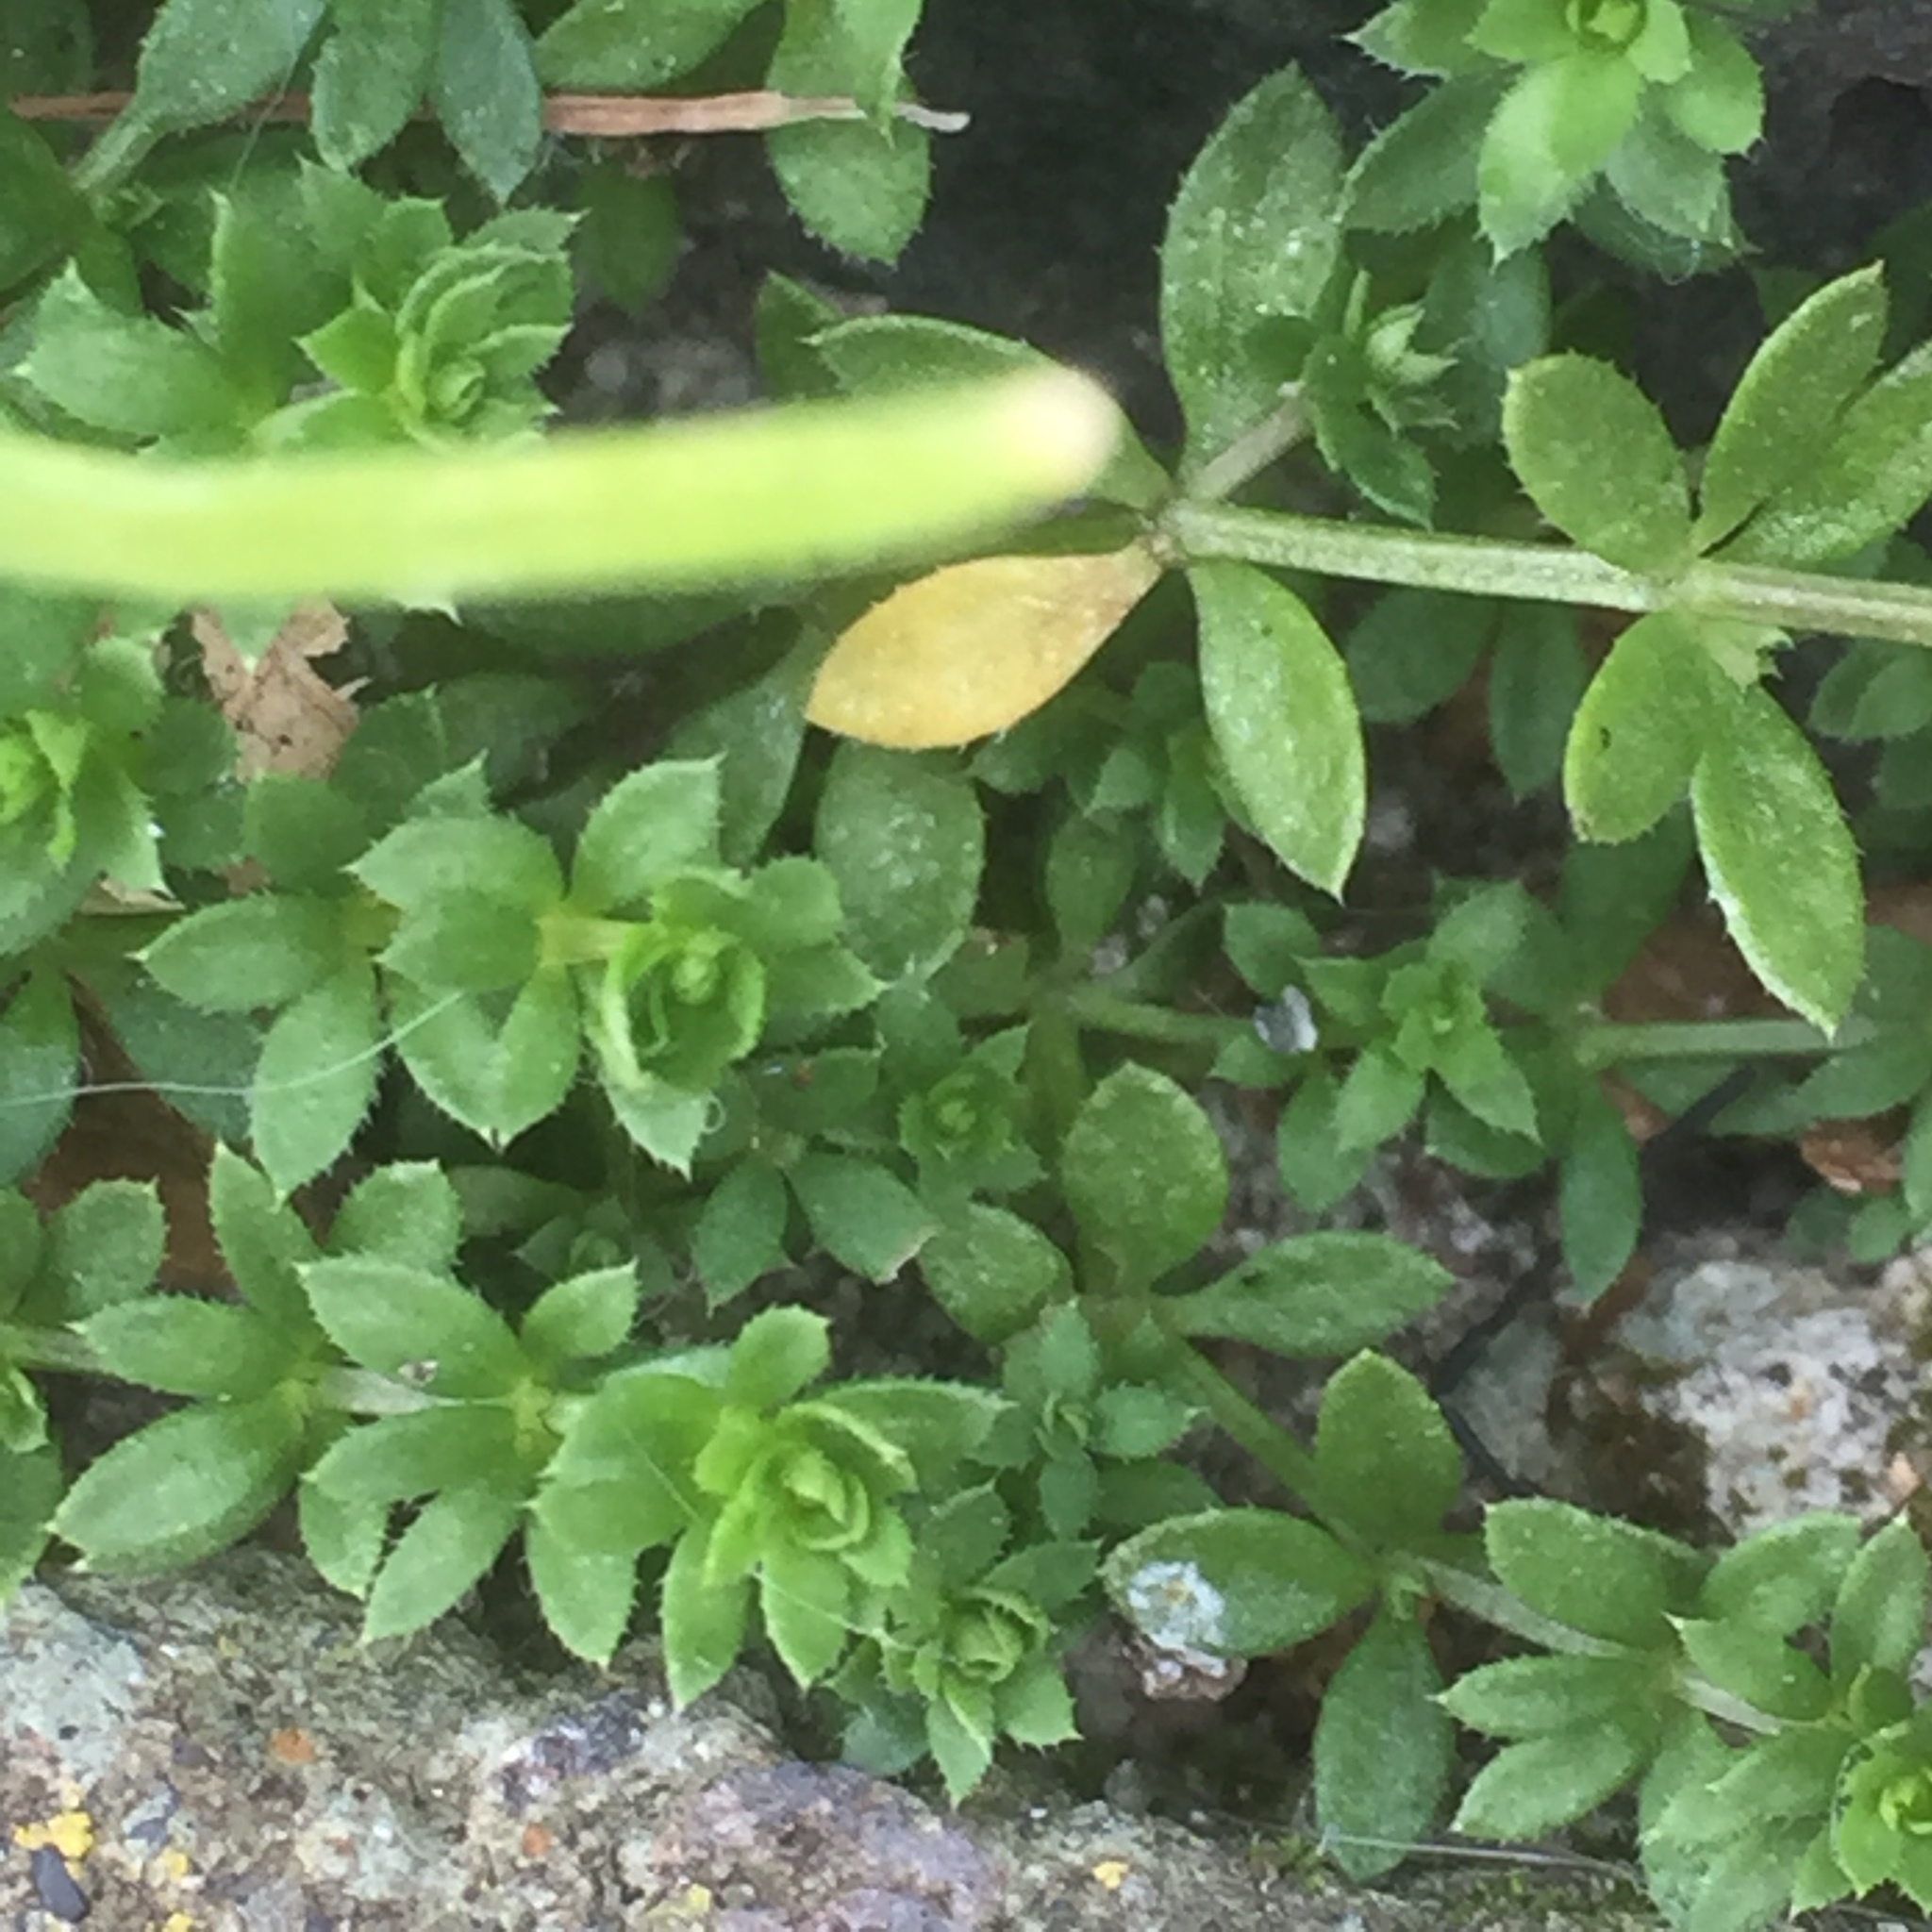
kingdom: Plantae
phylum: Tracheophyta
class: Magnoliopsida
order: Gentianales
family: Rubiaceae
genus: Sherardia
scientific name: Sherardia arvensis
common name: Field madder
